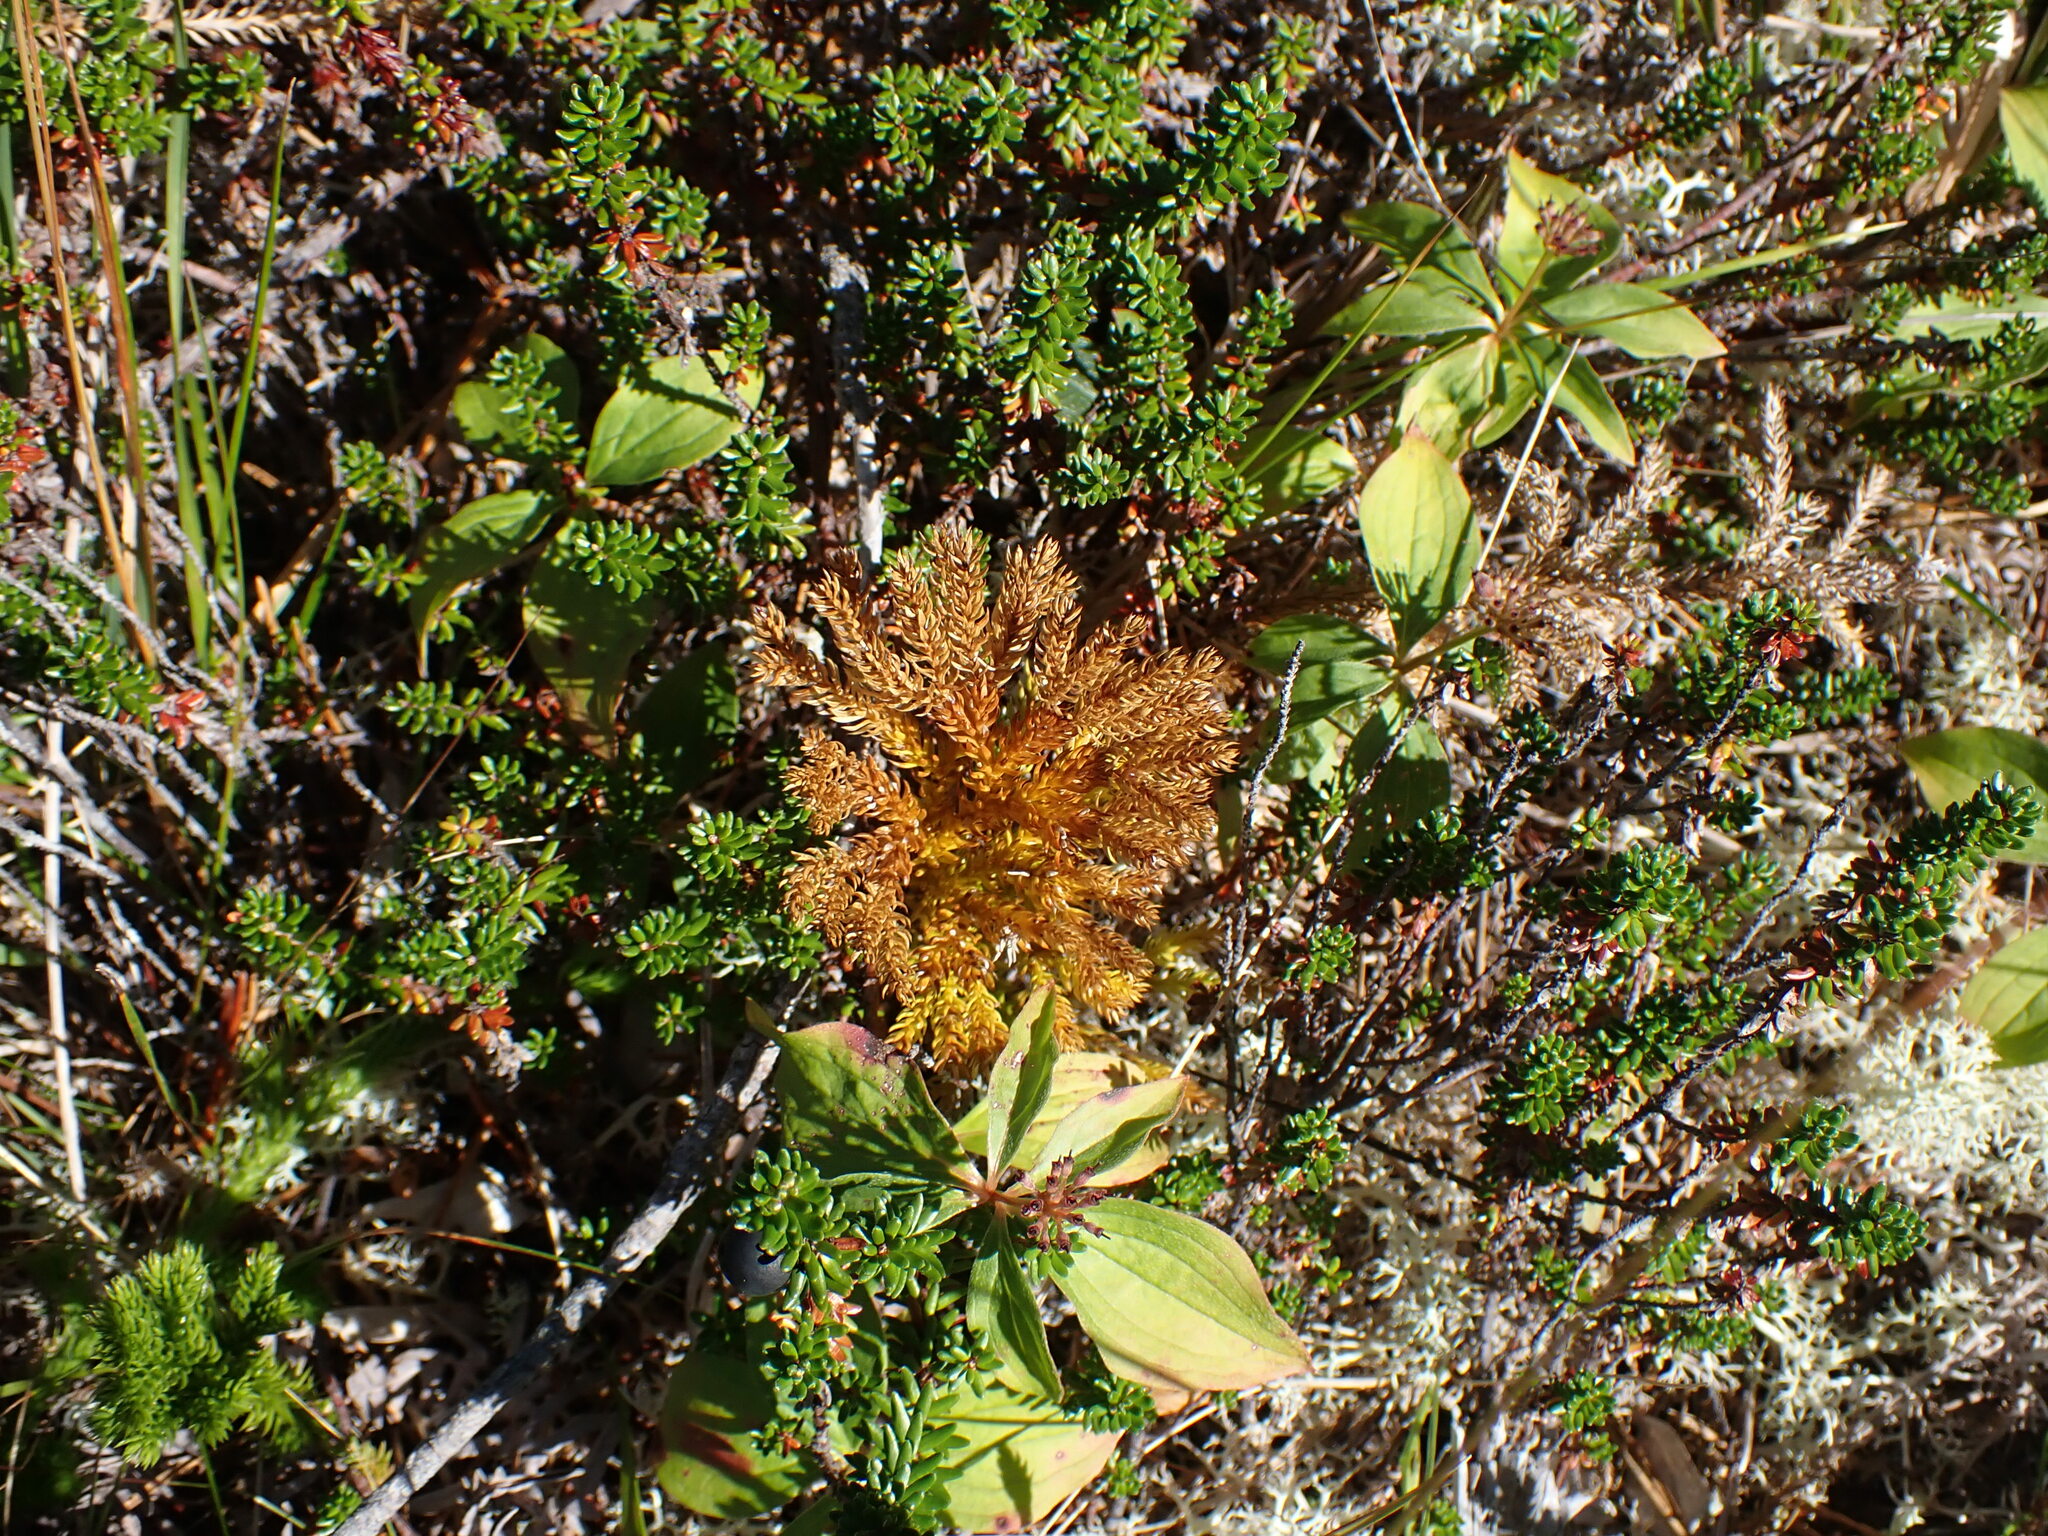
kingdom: Plantae
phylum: Tracheophyta
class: Lycopodiopsida
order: Lycopodiales
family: Lycopodiaceae
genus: Dendrolycopodium
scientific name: Dendrolycopodium dendroideum
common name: Northern tree-clubmoss
